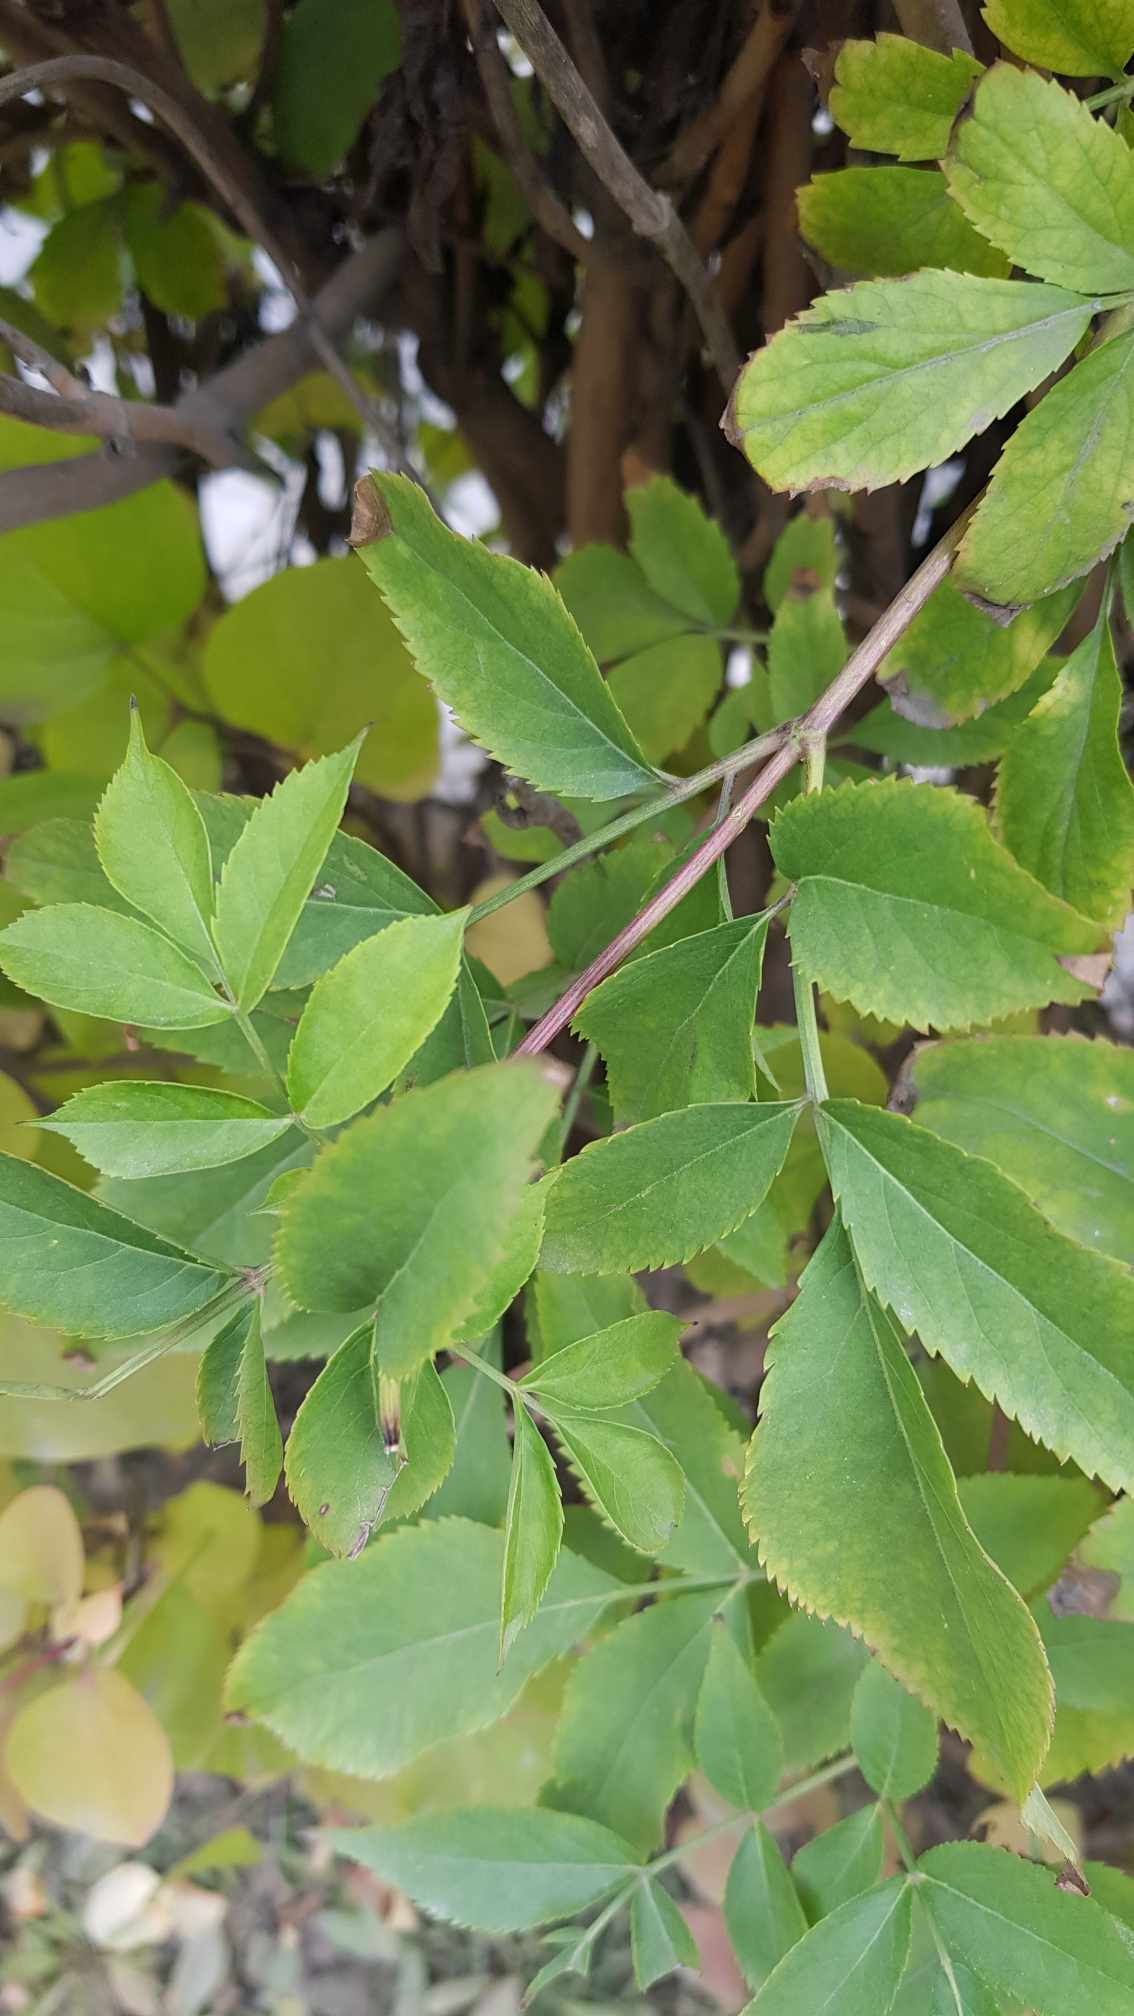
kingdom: Plantae
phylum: Tracheophyta
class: Magnoliopsida
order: Dipsacales
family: Viburnaceae
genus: Sambucus
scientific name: Sambucus sibirica
